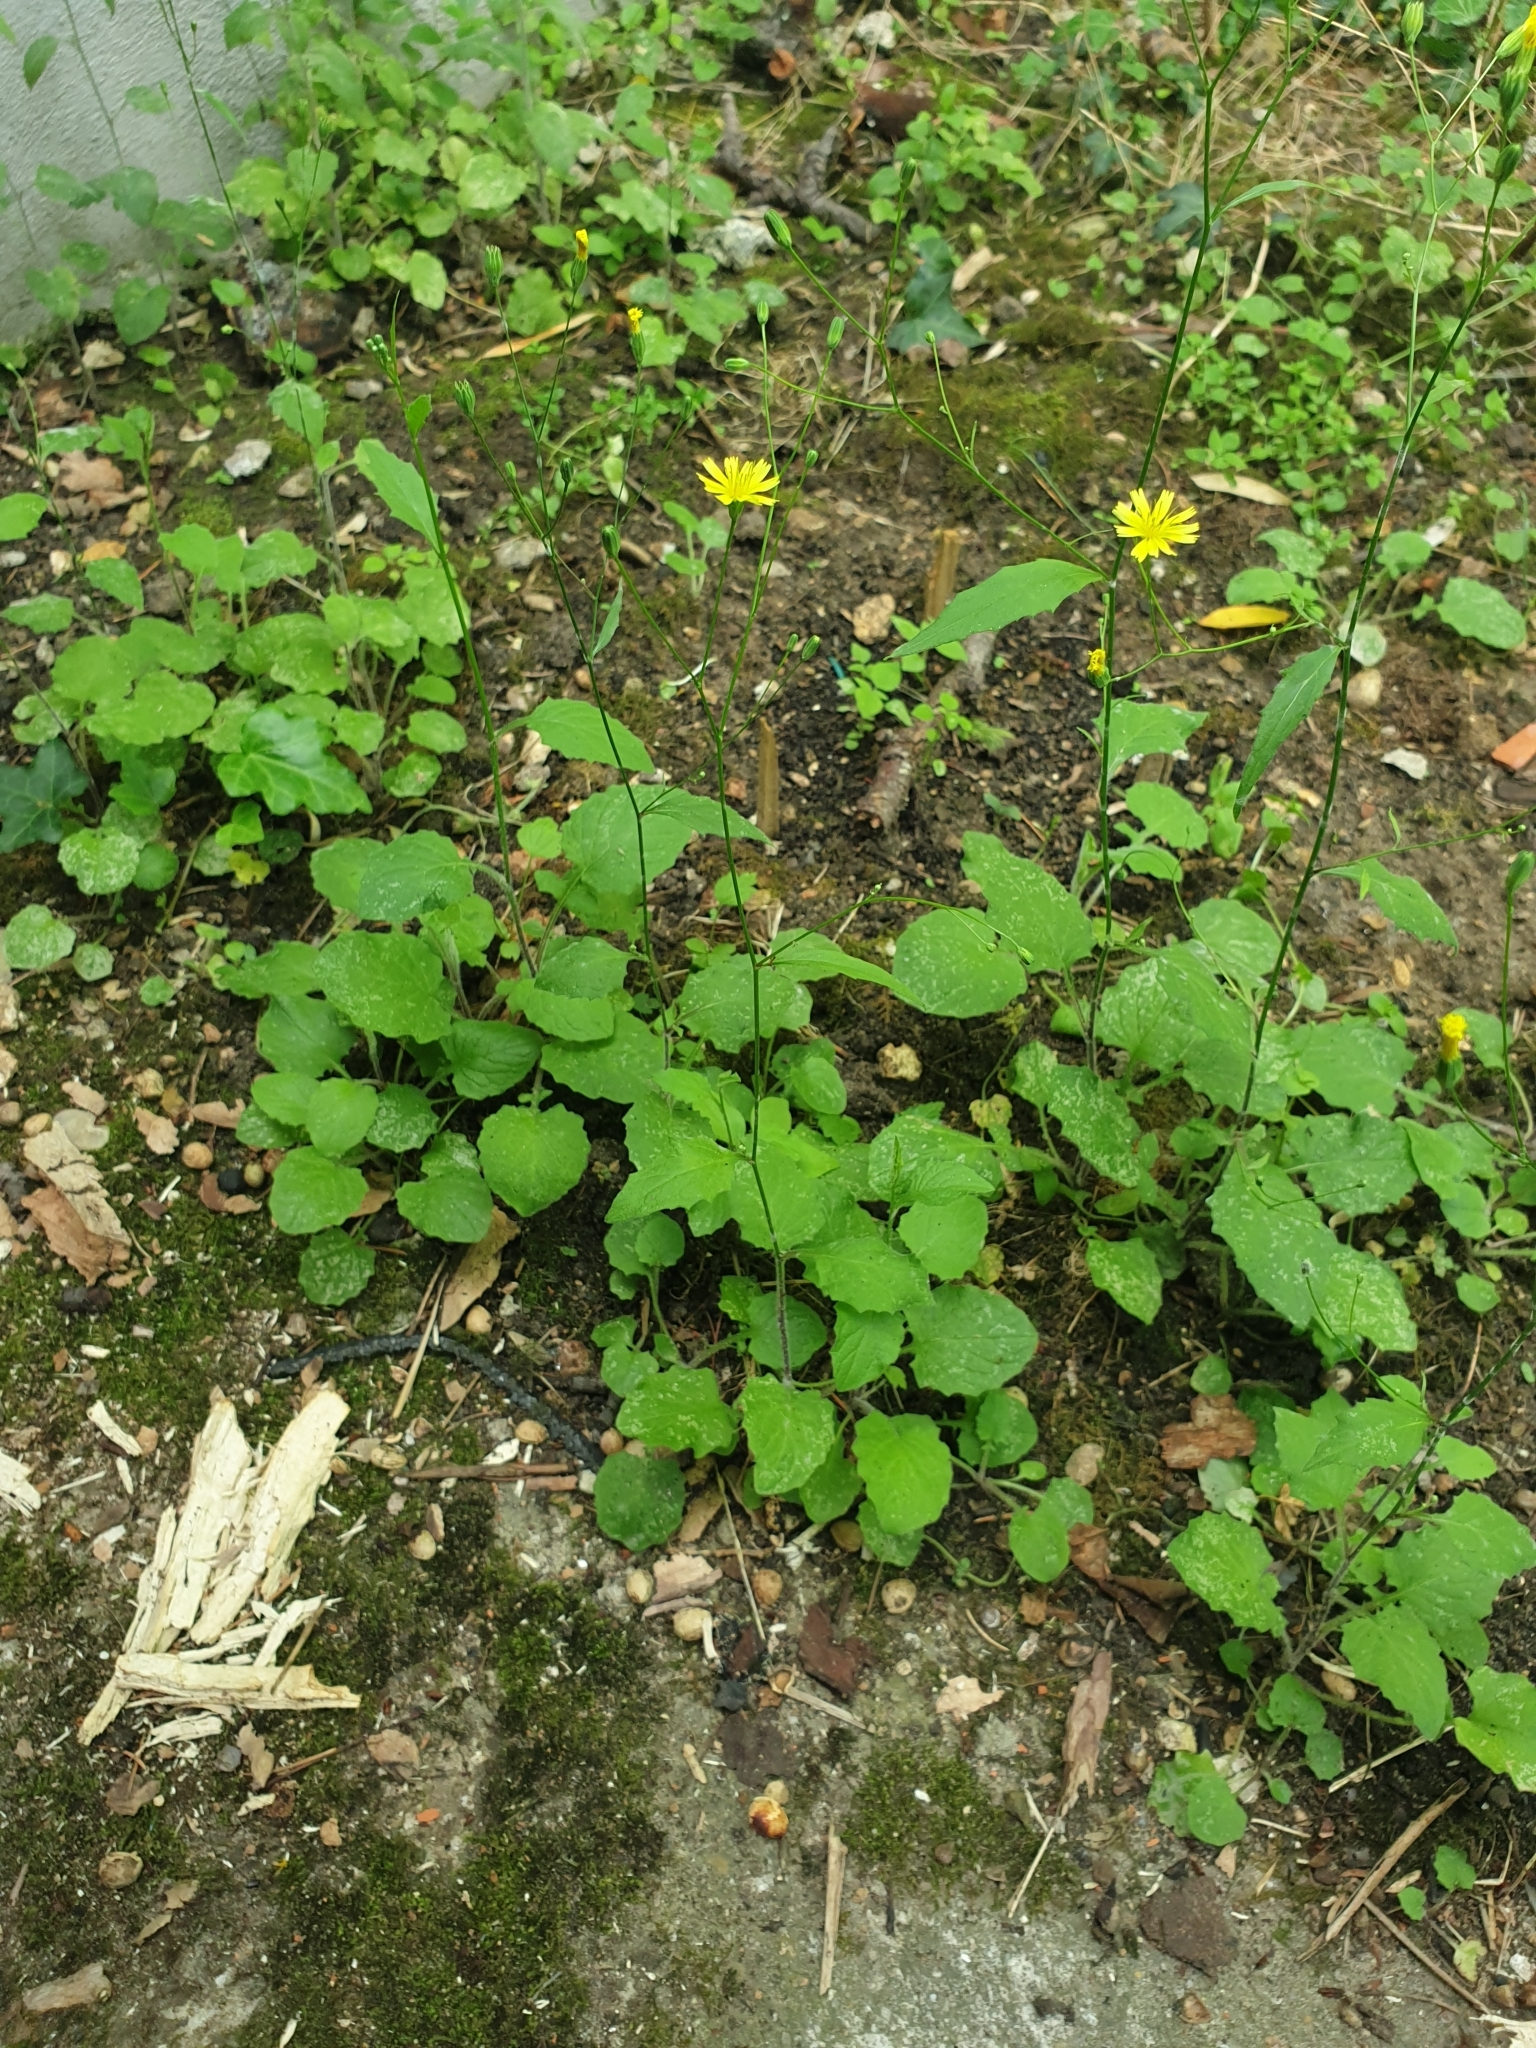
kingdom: Plantae
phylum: Tracheophyta
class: Magnoliopsida
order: Asterales
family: Asteraceae
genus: Lapsana
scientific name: Lapsana communis
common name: Nipplewort
